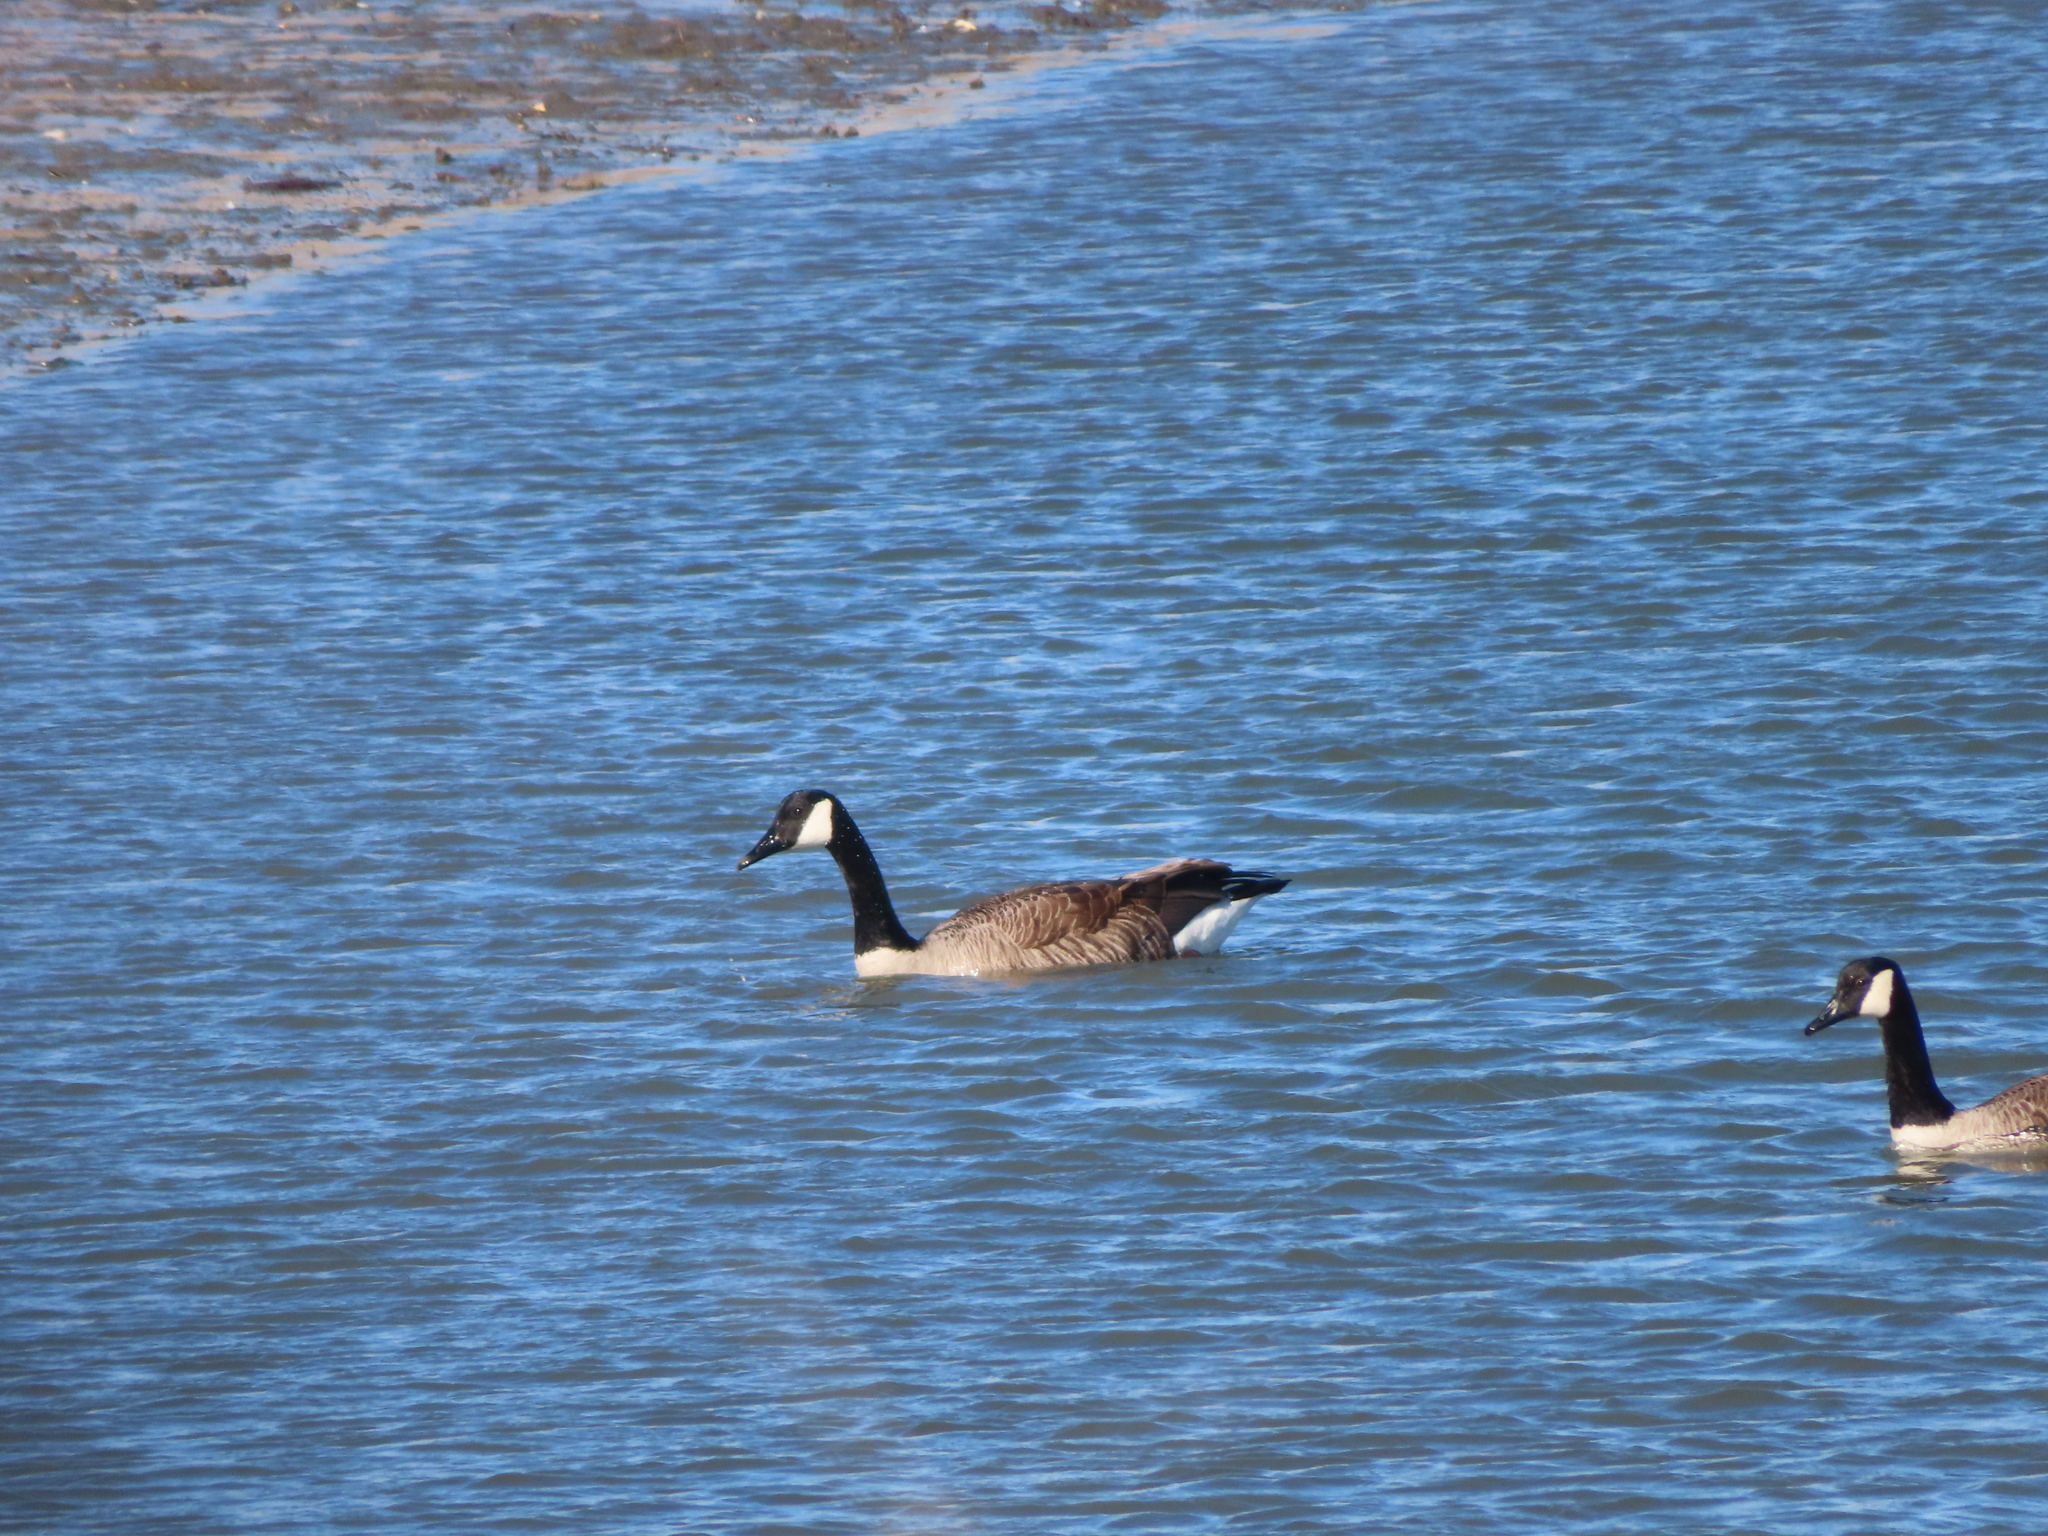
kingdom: Animalia
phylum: Chordata
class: Aves
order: Anseriformes
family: Anatidae
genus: Branta
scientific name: Branta canadensis
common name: Canada goose
